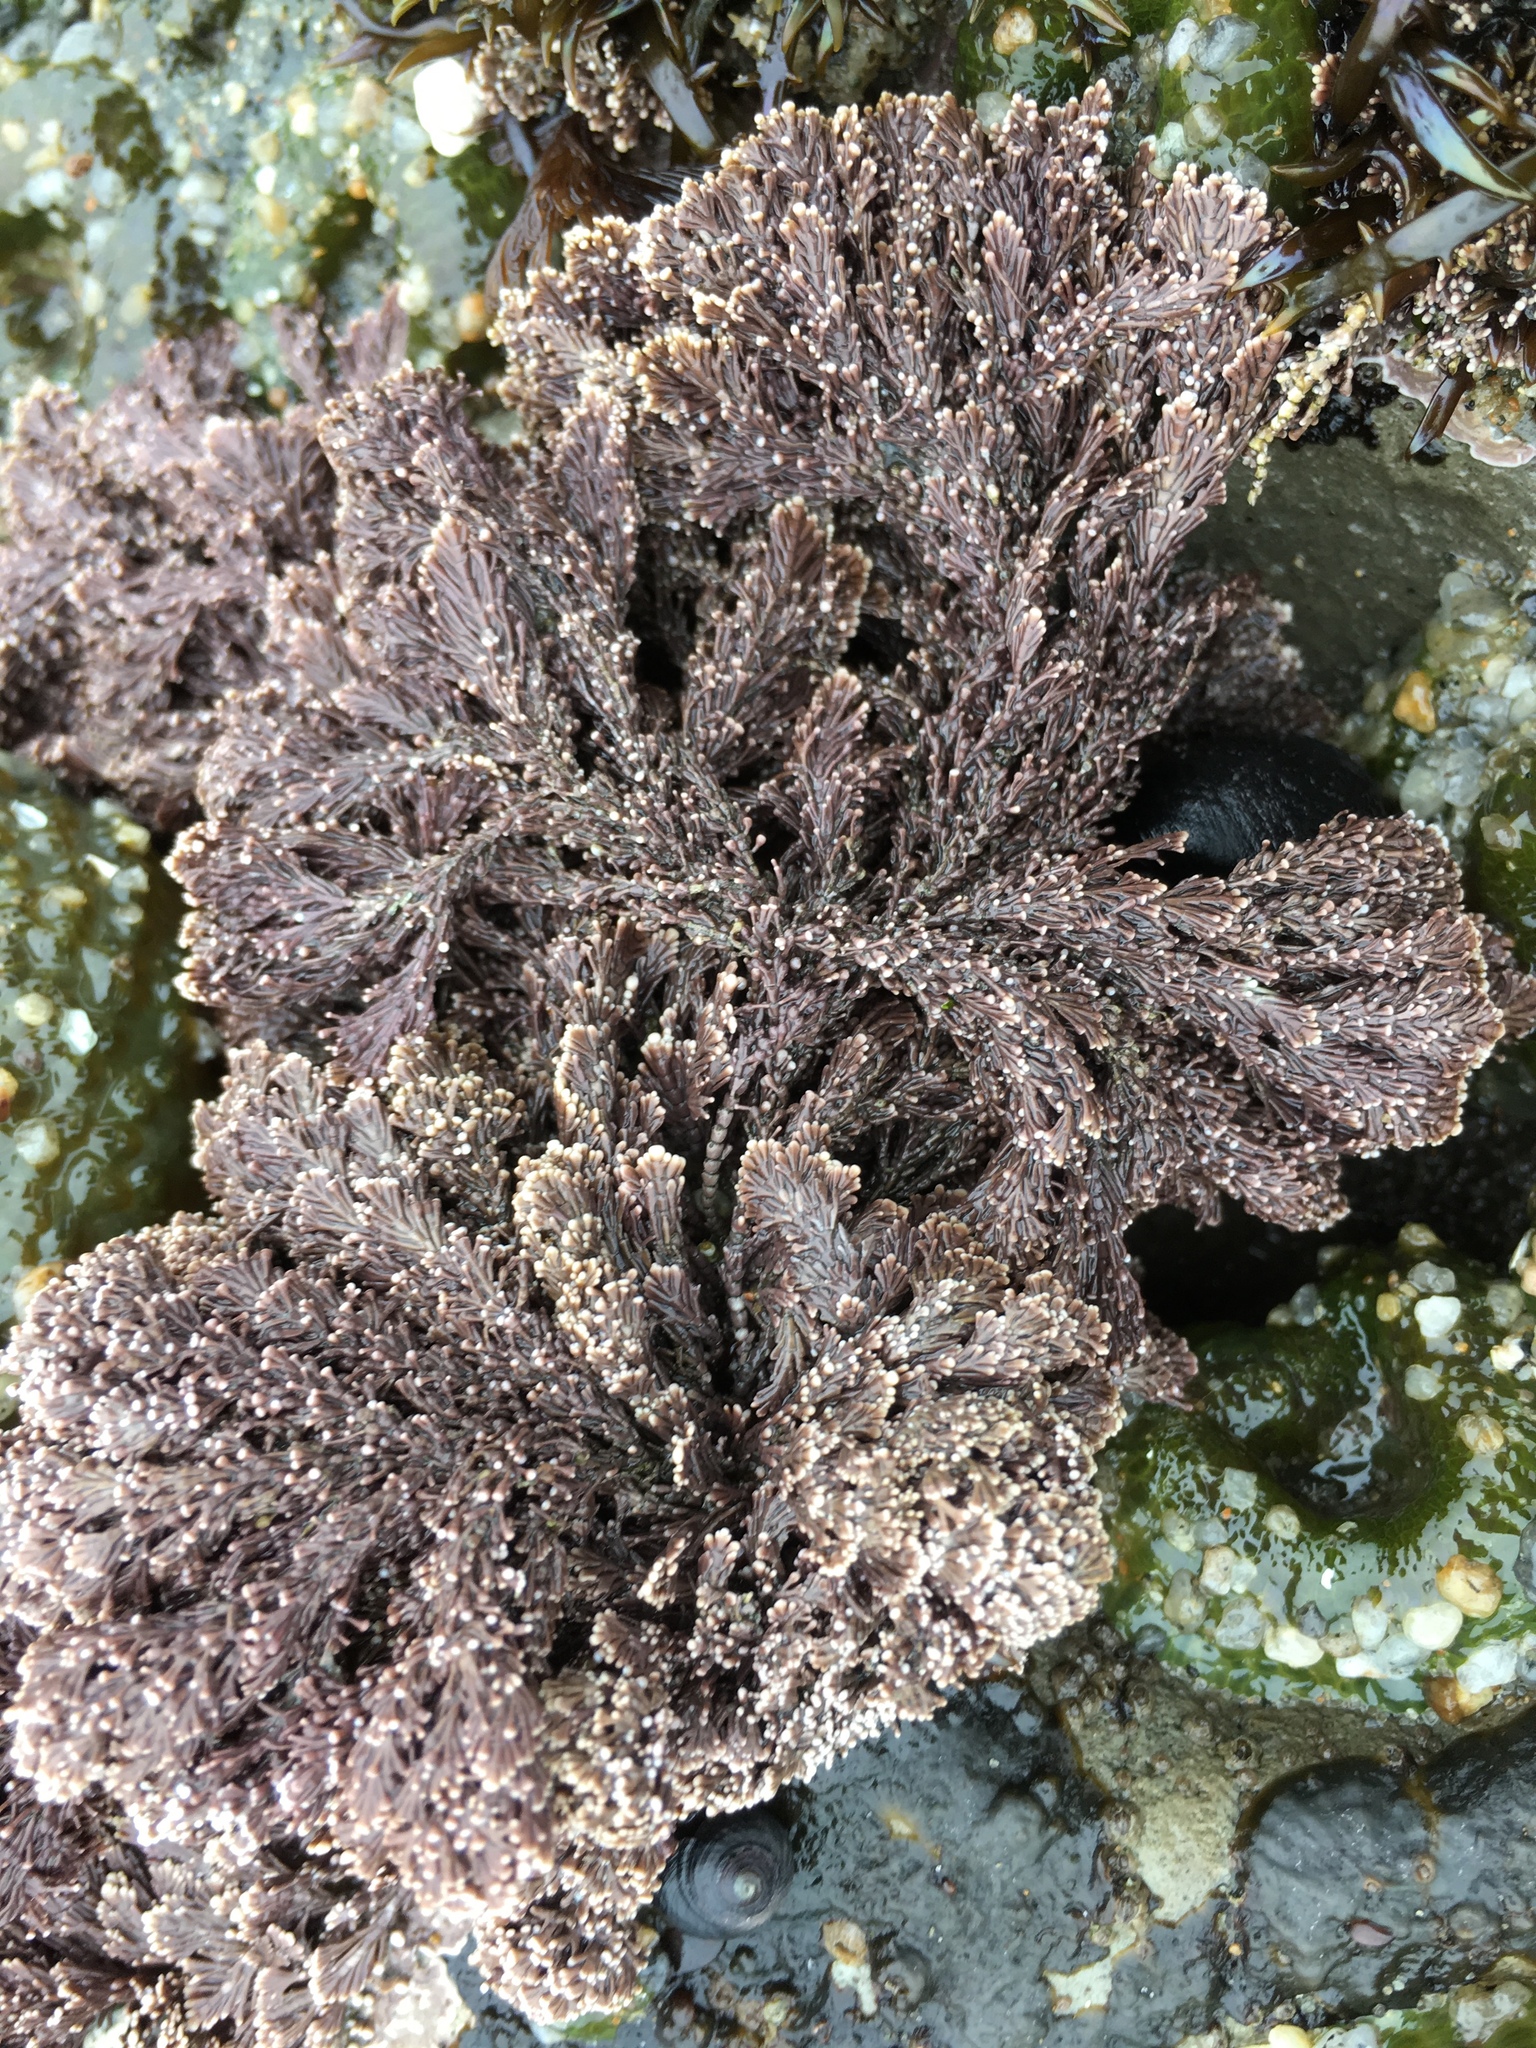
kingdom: Plantae
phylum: Rhodophyta
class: Florideophyceae
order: Corallinales
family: Corallinaceae
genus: Corallina
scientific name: Corallina vancouveriensis
